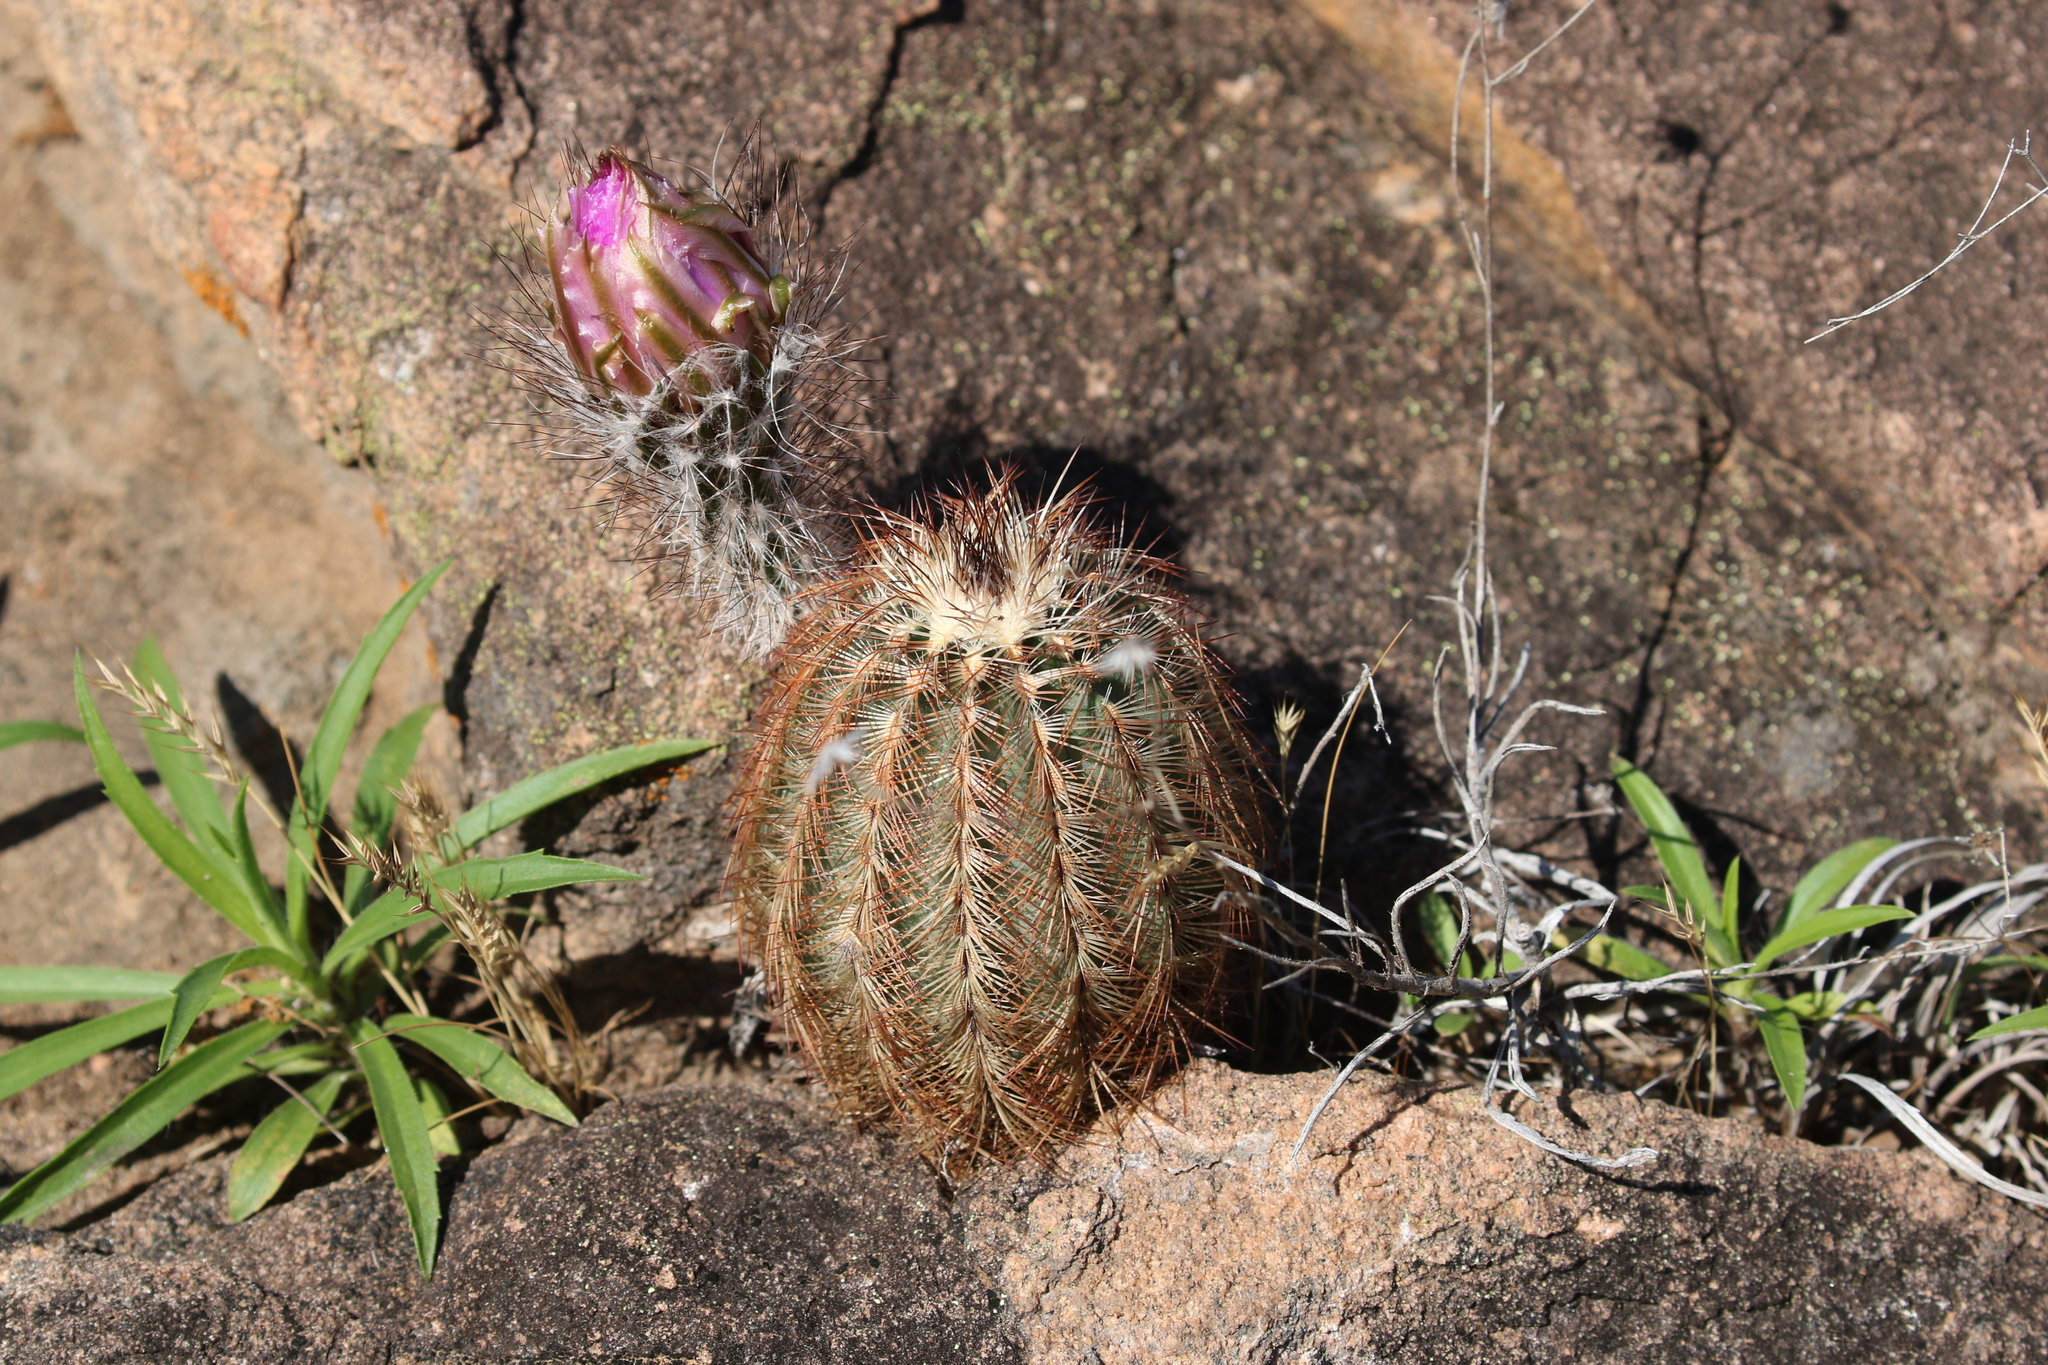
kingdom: Plantae
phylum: Tracheophyta
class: Magnoliopsida
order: Caryophyllales
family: Cactaceae
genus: Echinocereus
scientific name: Echinocereus reichenbachii
